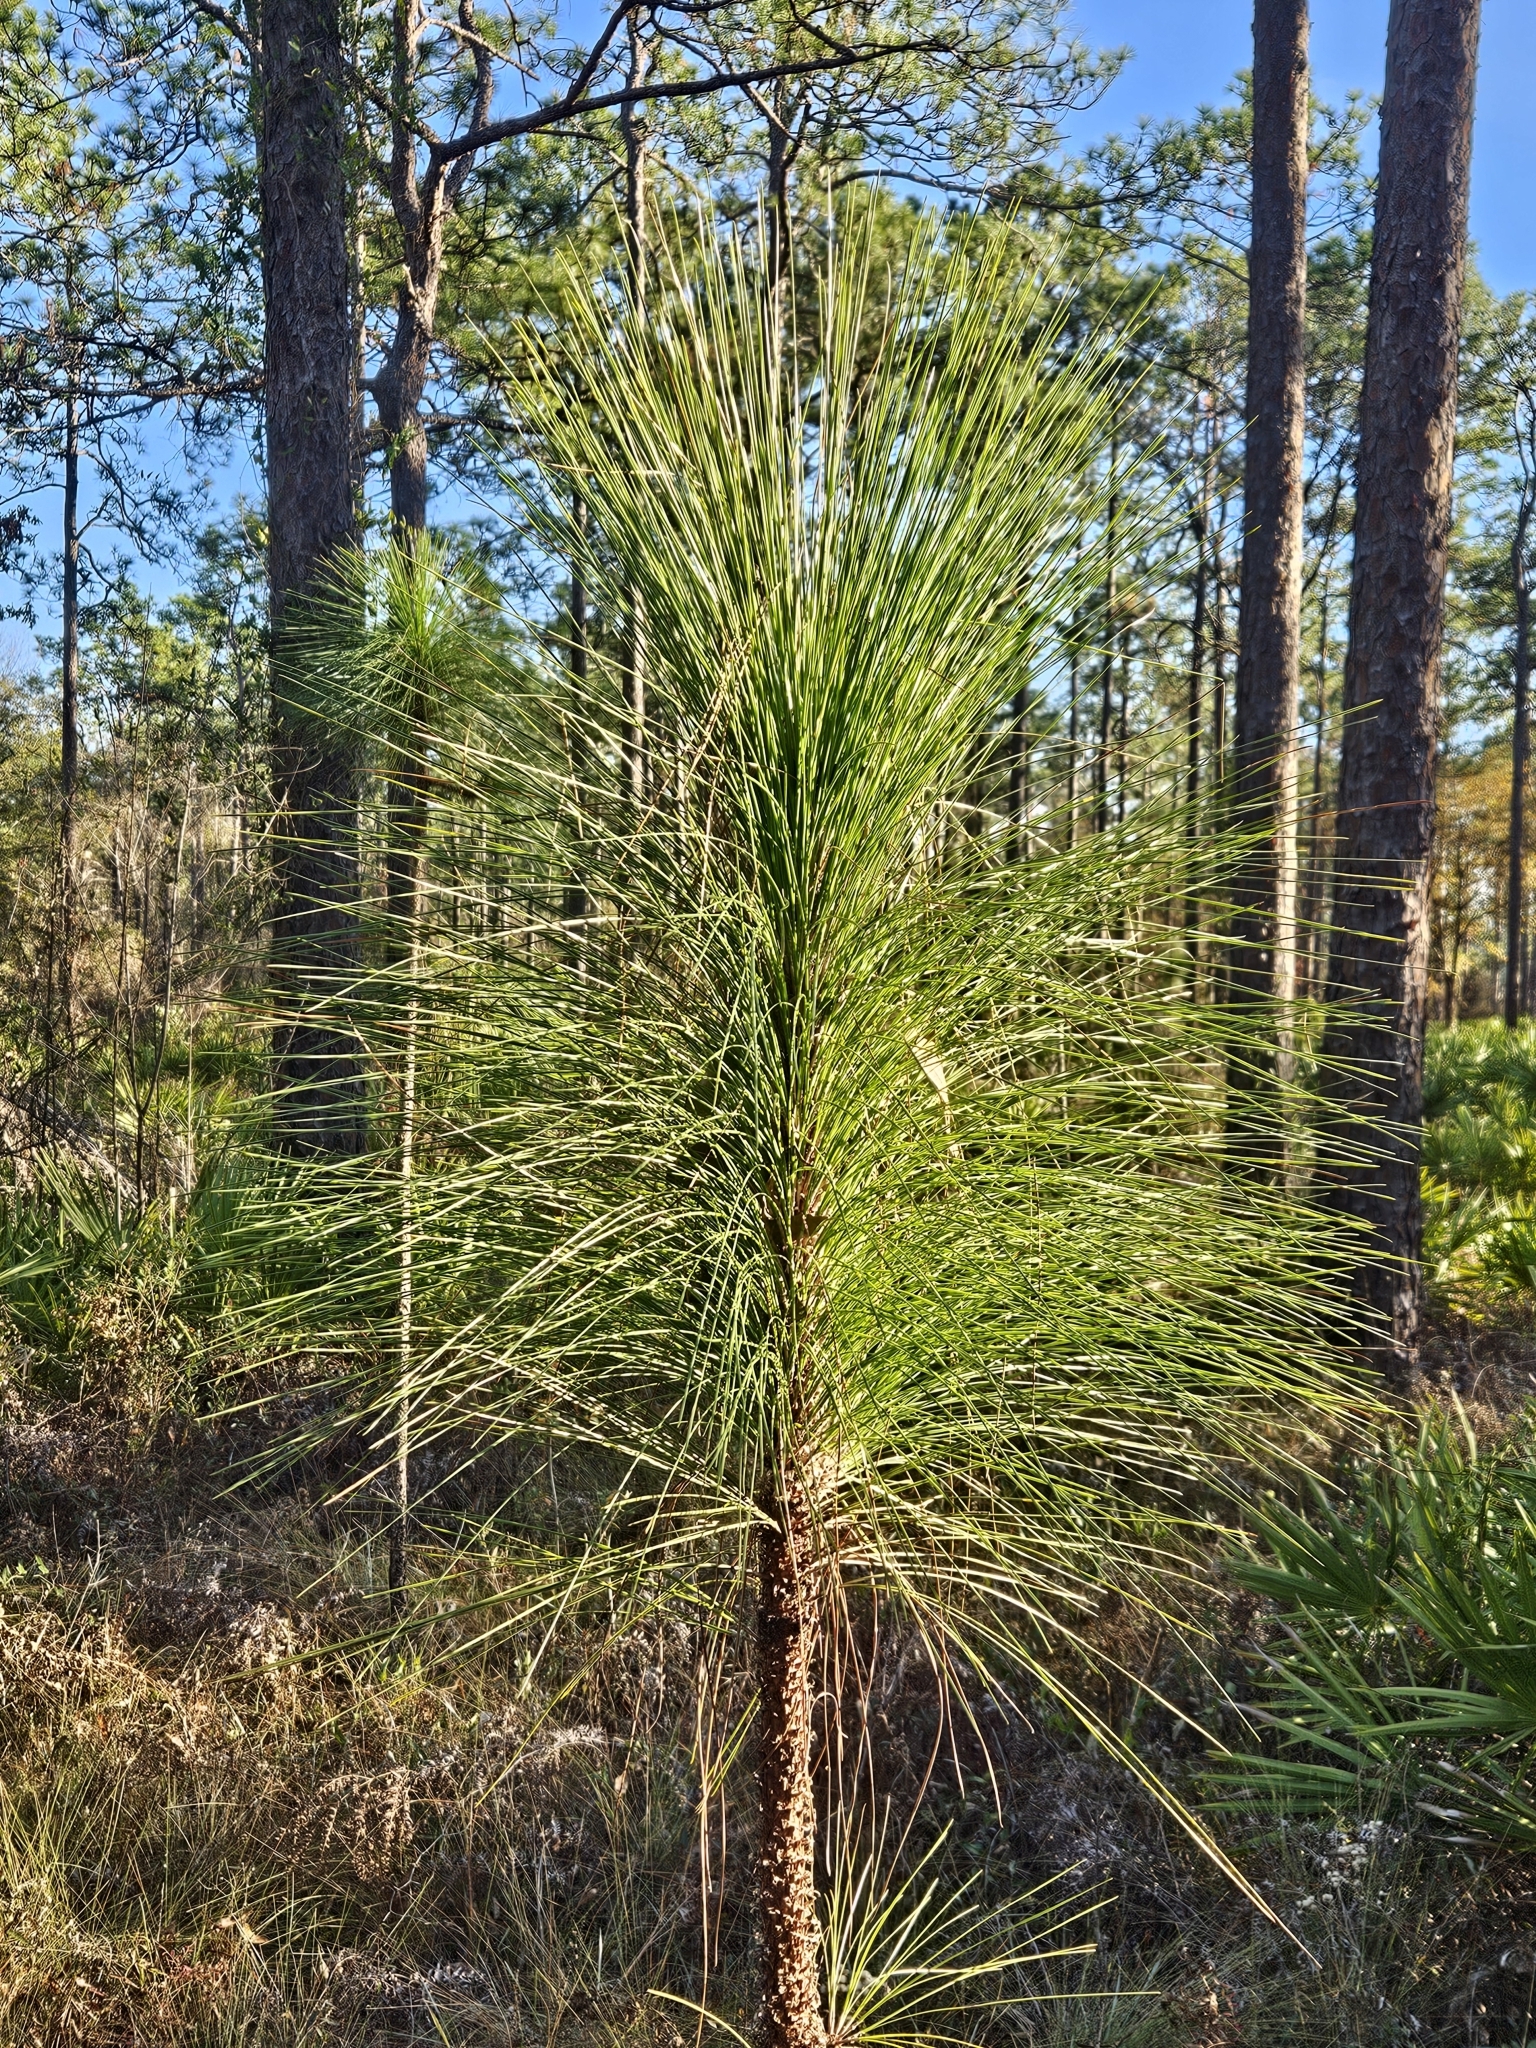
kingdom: Plantae
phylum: Tracheophyta
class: Pinopsida
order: Pinales
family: Pinaceae
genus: Pinus
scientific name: Pinus palustris
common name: Longleaf pine
